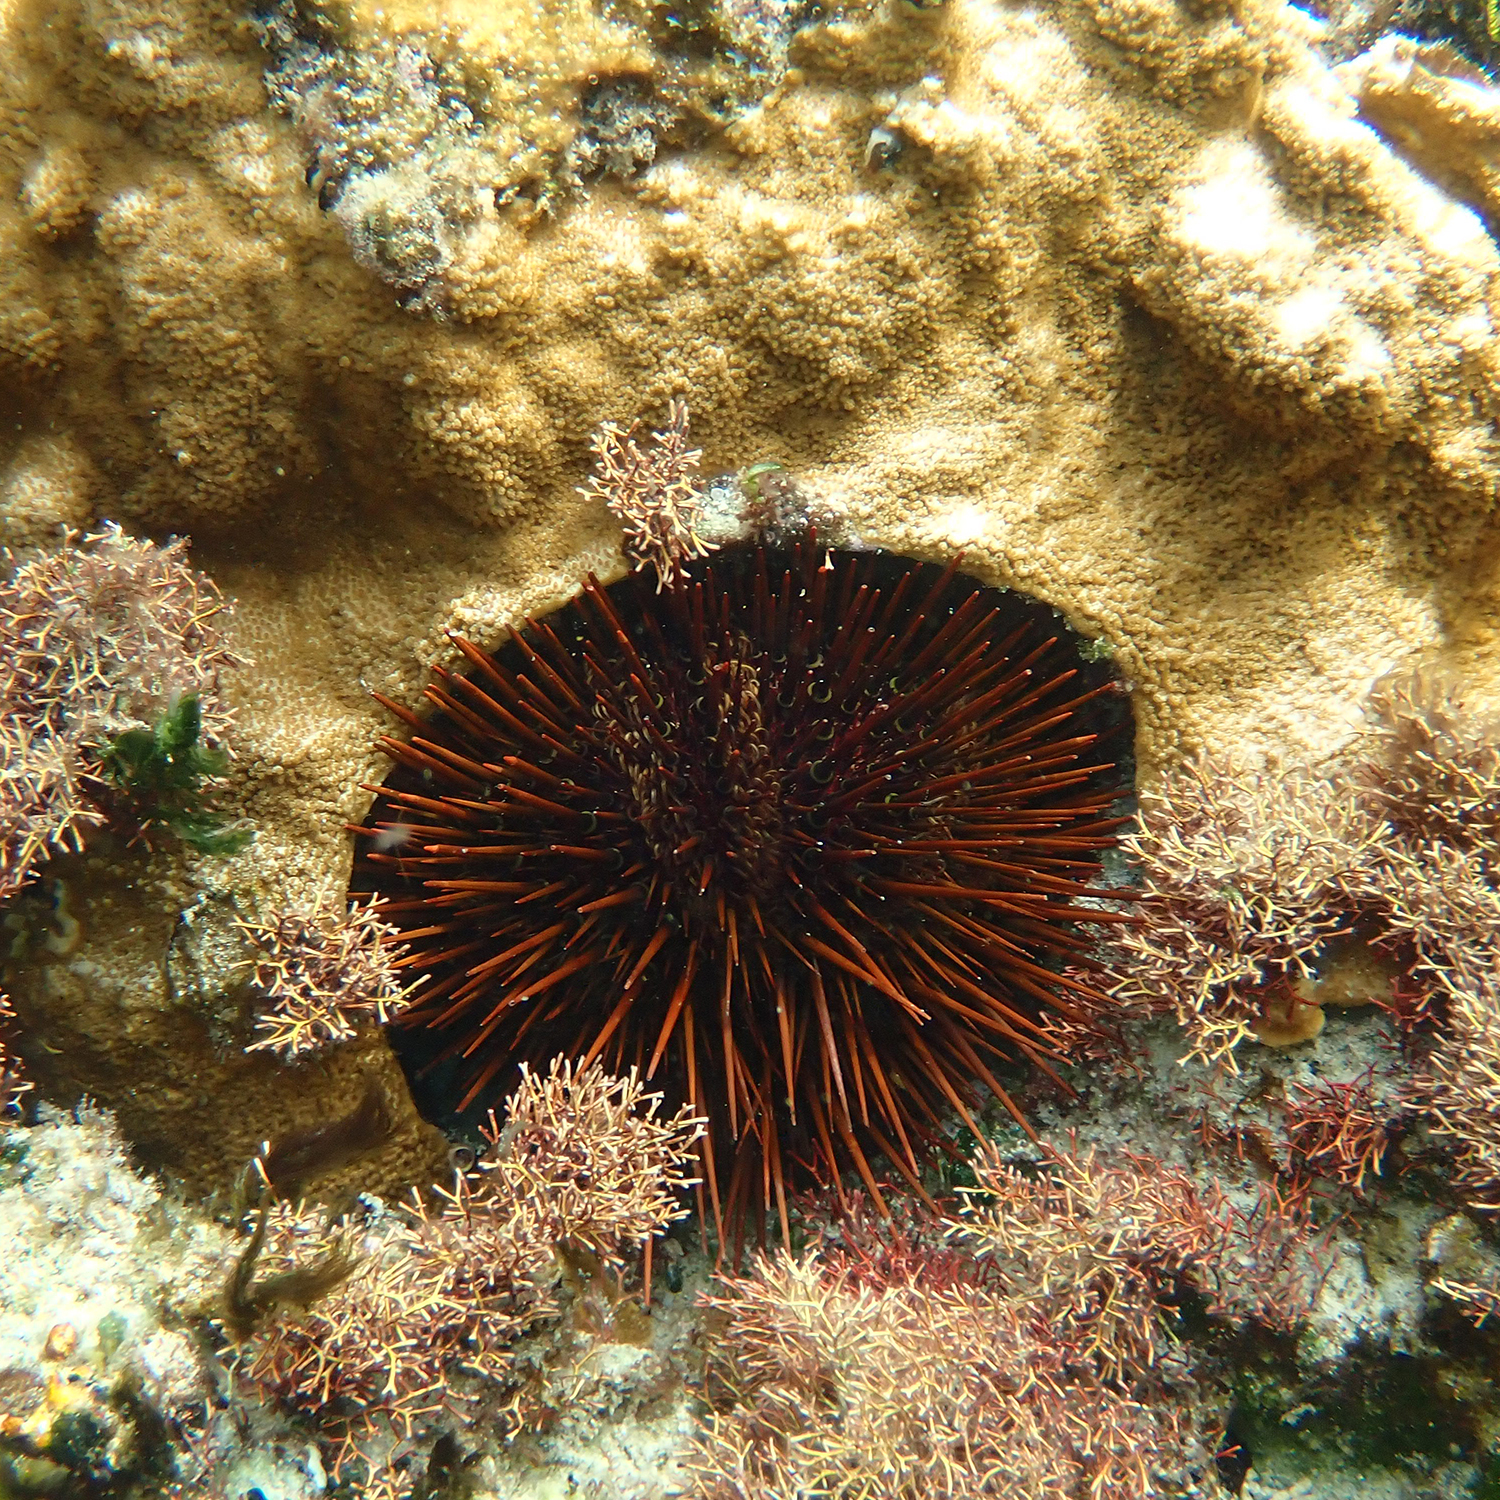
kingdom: Animalia
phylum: Echinodermata
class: Echinoidea
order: Camarodonta
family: Echinometridae
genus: Heliocidaris
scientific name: Heliocidaris tuberculata
